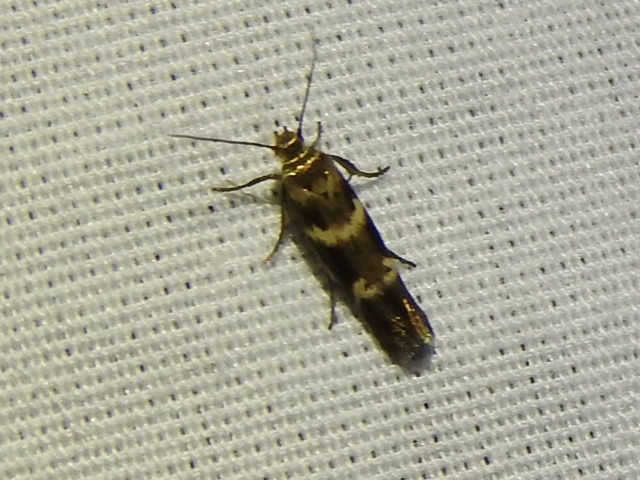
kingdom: Animalia
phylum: Arthropoda
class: Insecta
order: Lepidoptera
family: Scythrididae
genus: Scythris
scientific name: Scythris trivinctella
